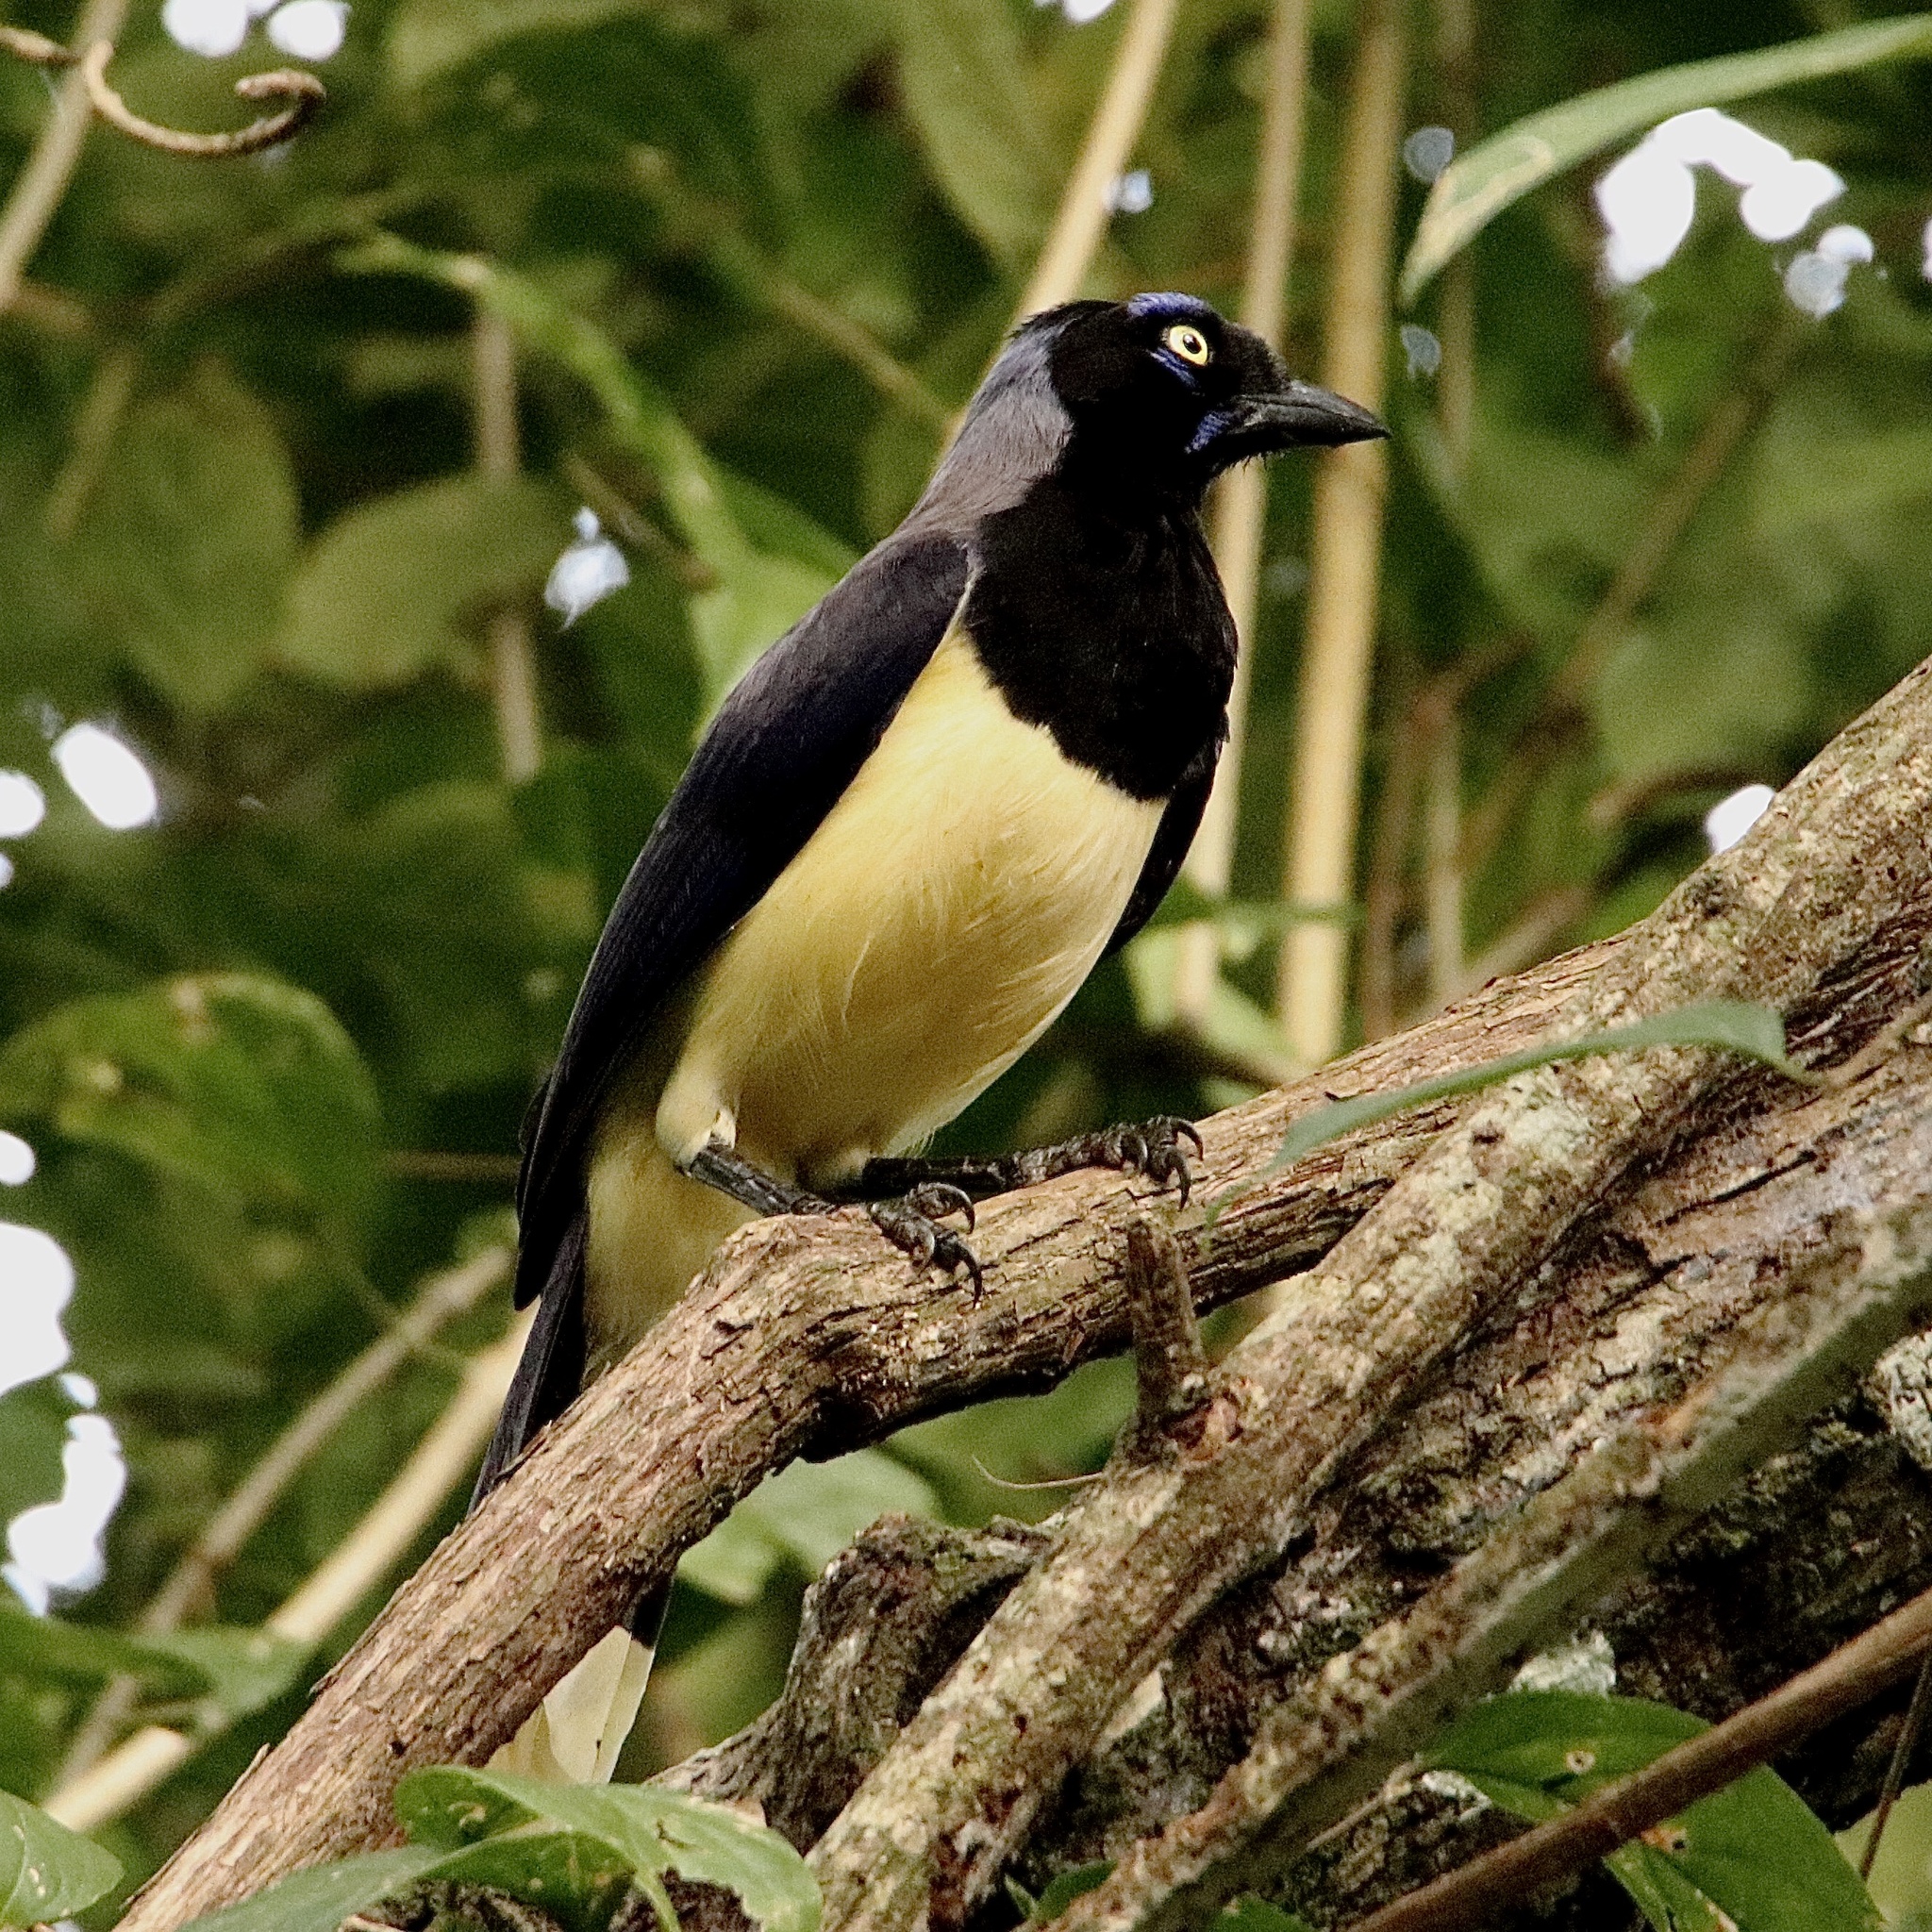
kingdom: Animalia
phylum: Chordata
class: Aves
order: Passeriformes
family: Corvidae
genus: Cyanocorax
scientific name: Cyanocorax affinis
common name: Black-chested jay
